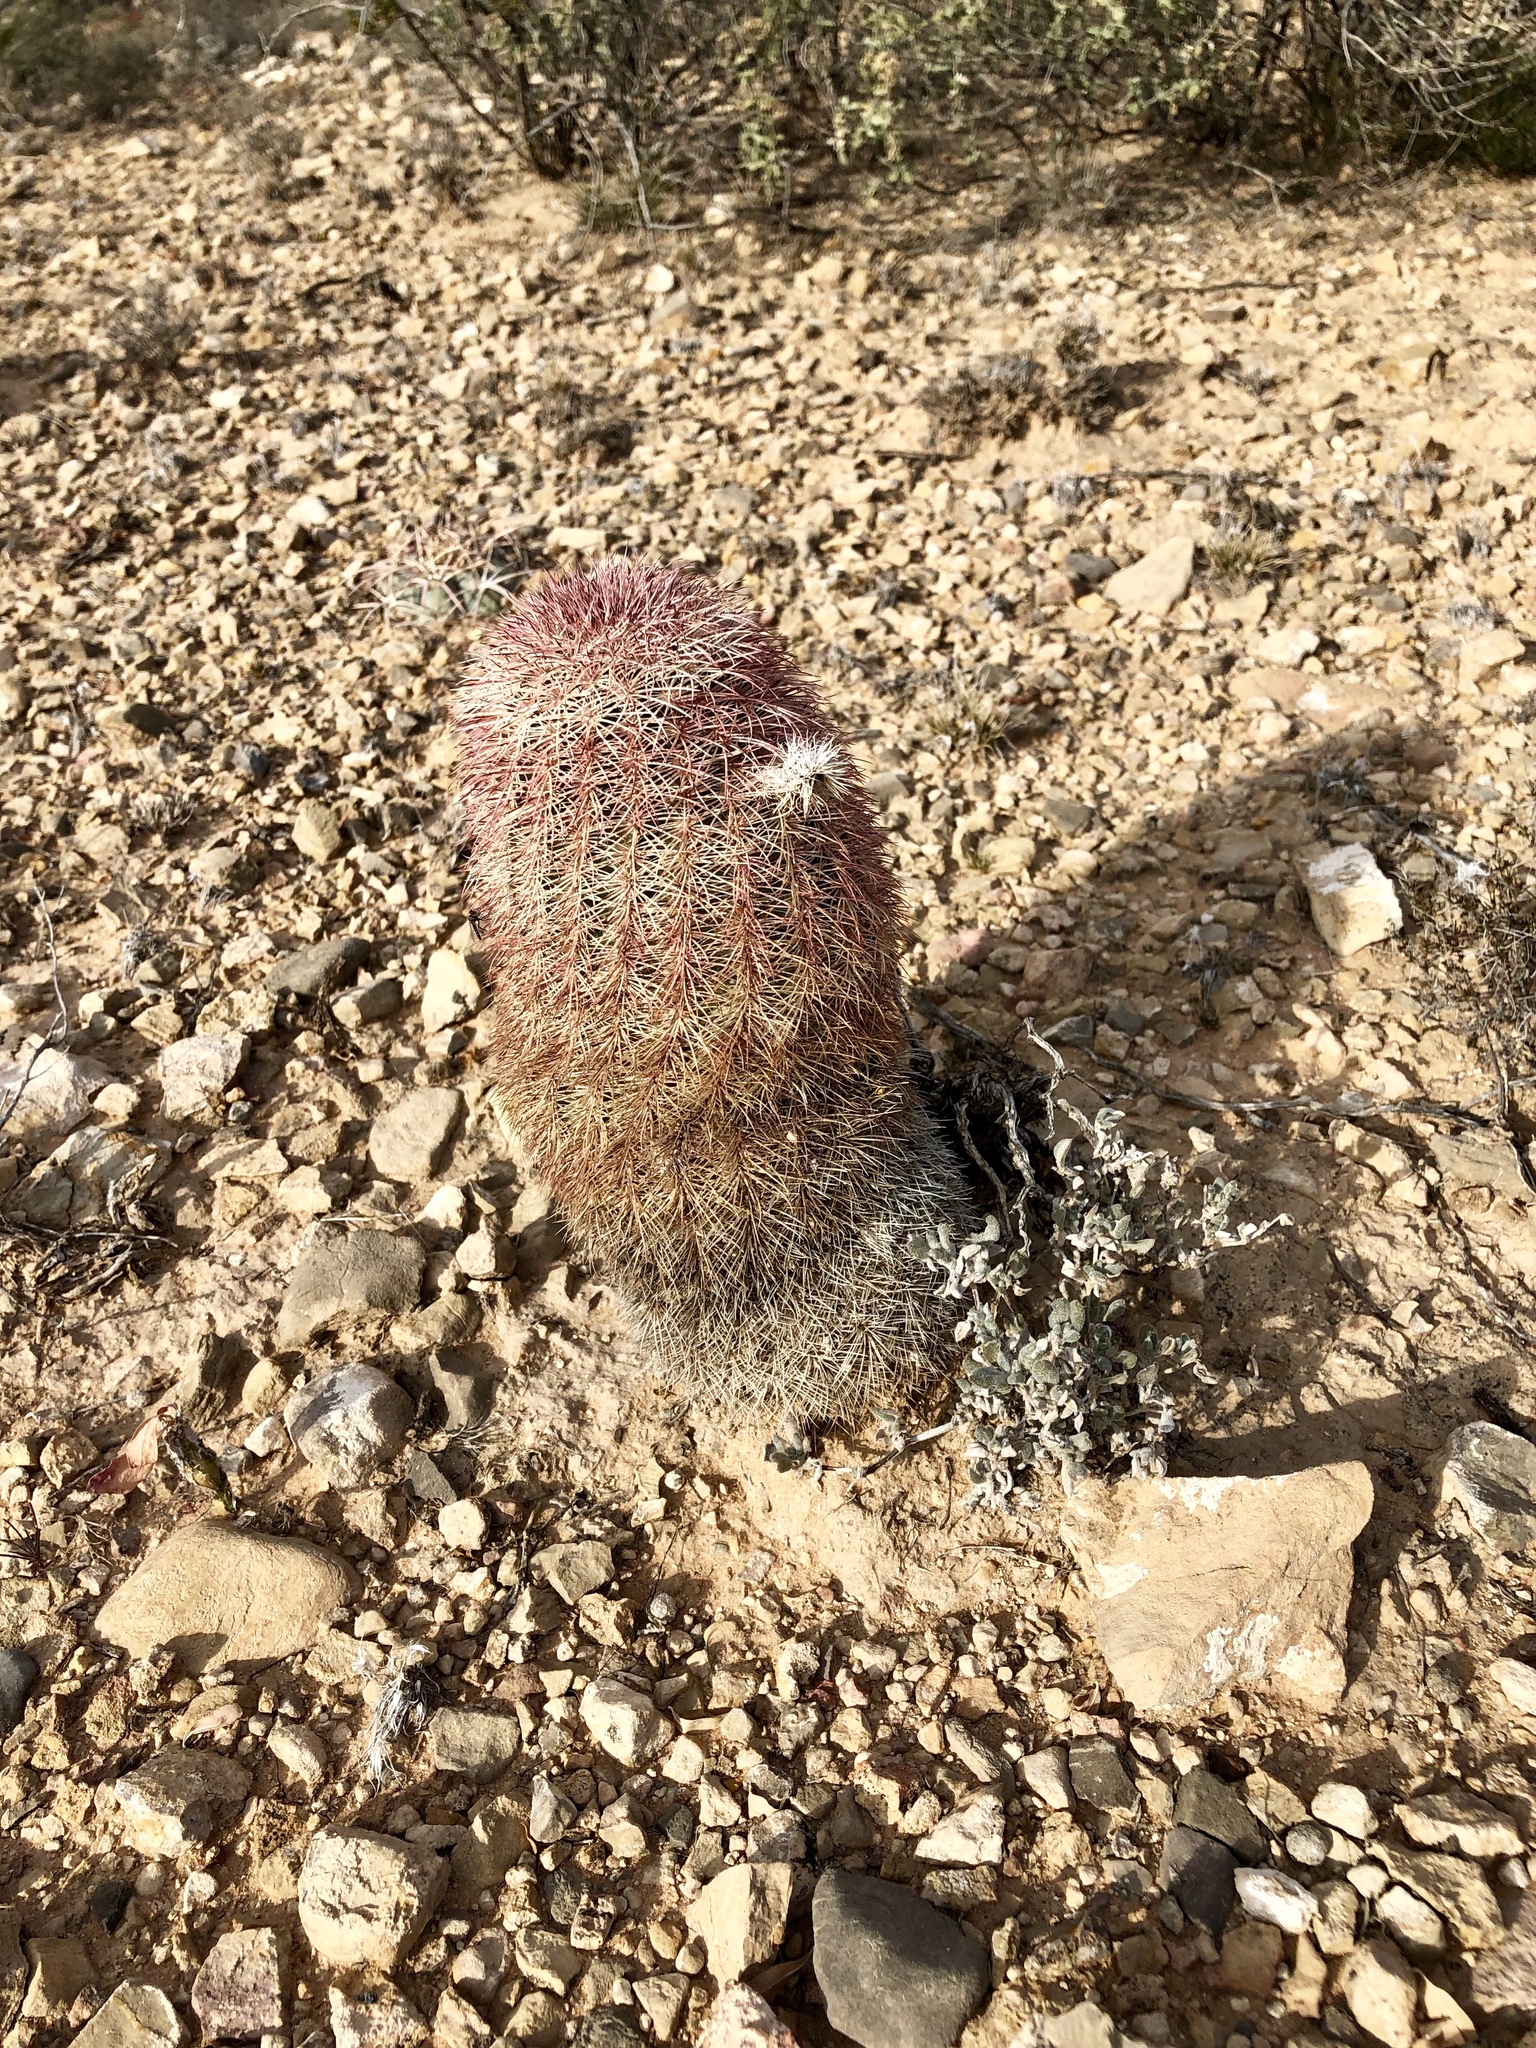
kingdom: Plantae
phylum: Tracheophyta
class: Magnoliopsida
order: Caryophyllales
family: Cactaceae
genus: Echinocereus
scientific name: Echinocereus dasyacanthus
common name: Spiny hedgehog cactus
